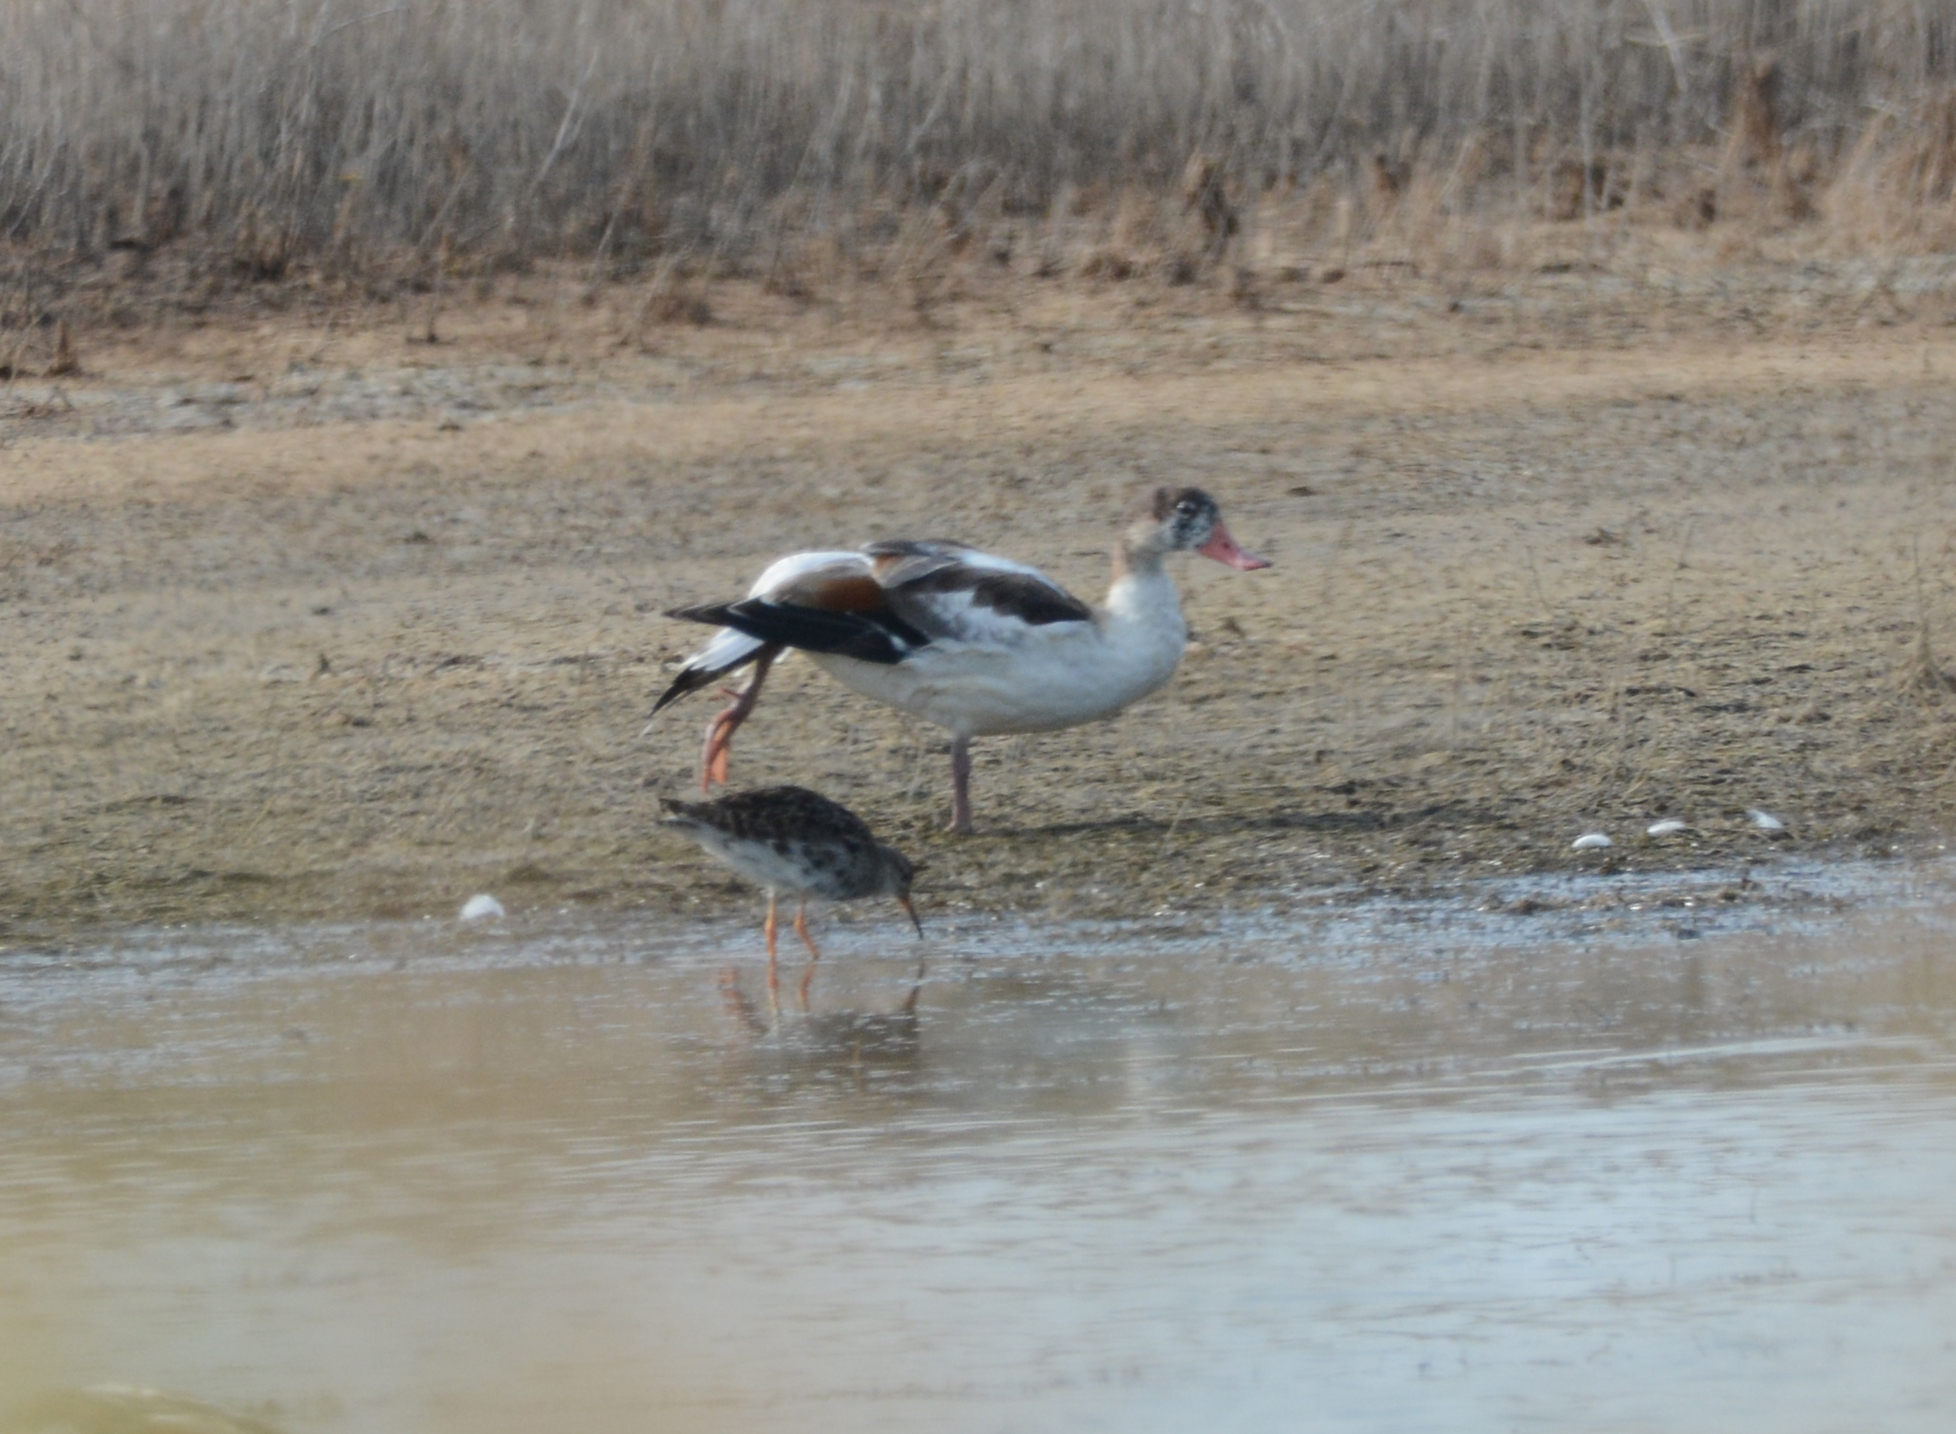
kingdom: Animalia
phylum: Chordata
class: Aves
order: Anseriformes
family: Anatidae
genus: Tadorna
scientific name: Tadorna tadorna
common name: Common shelduck
